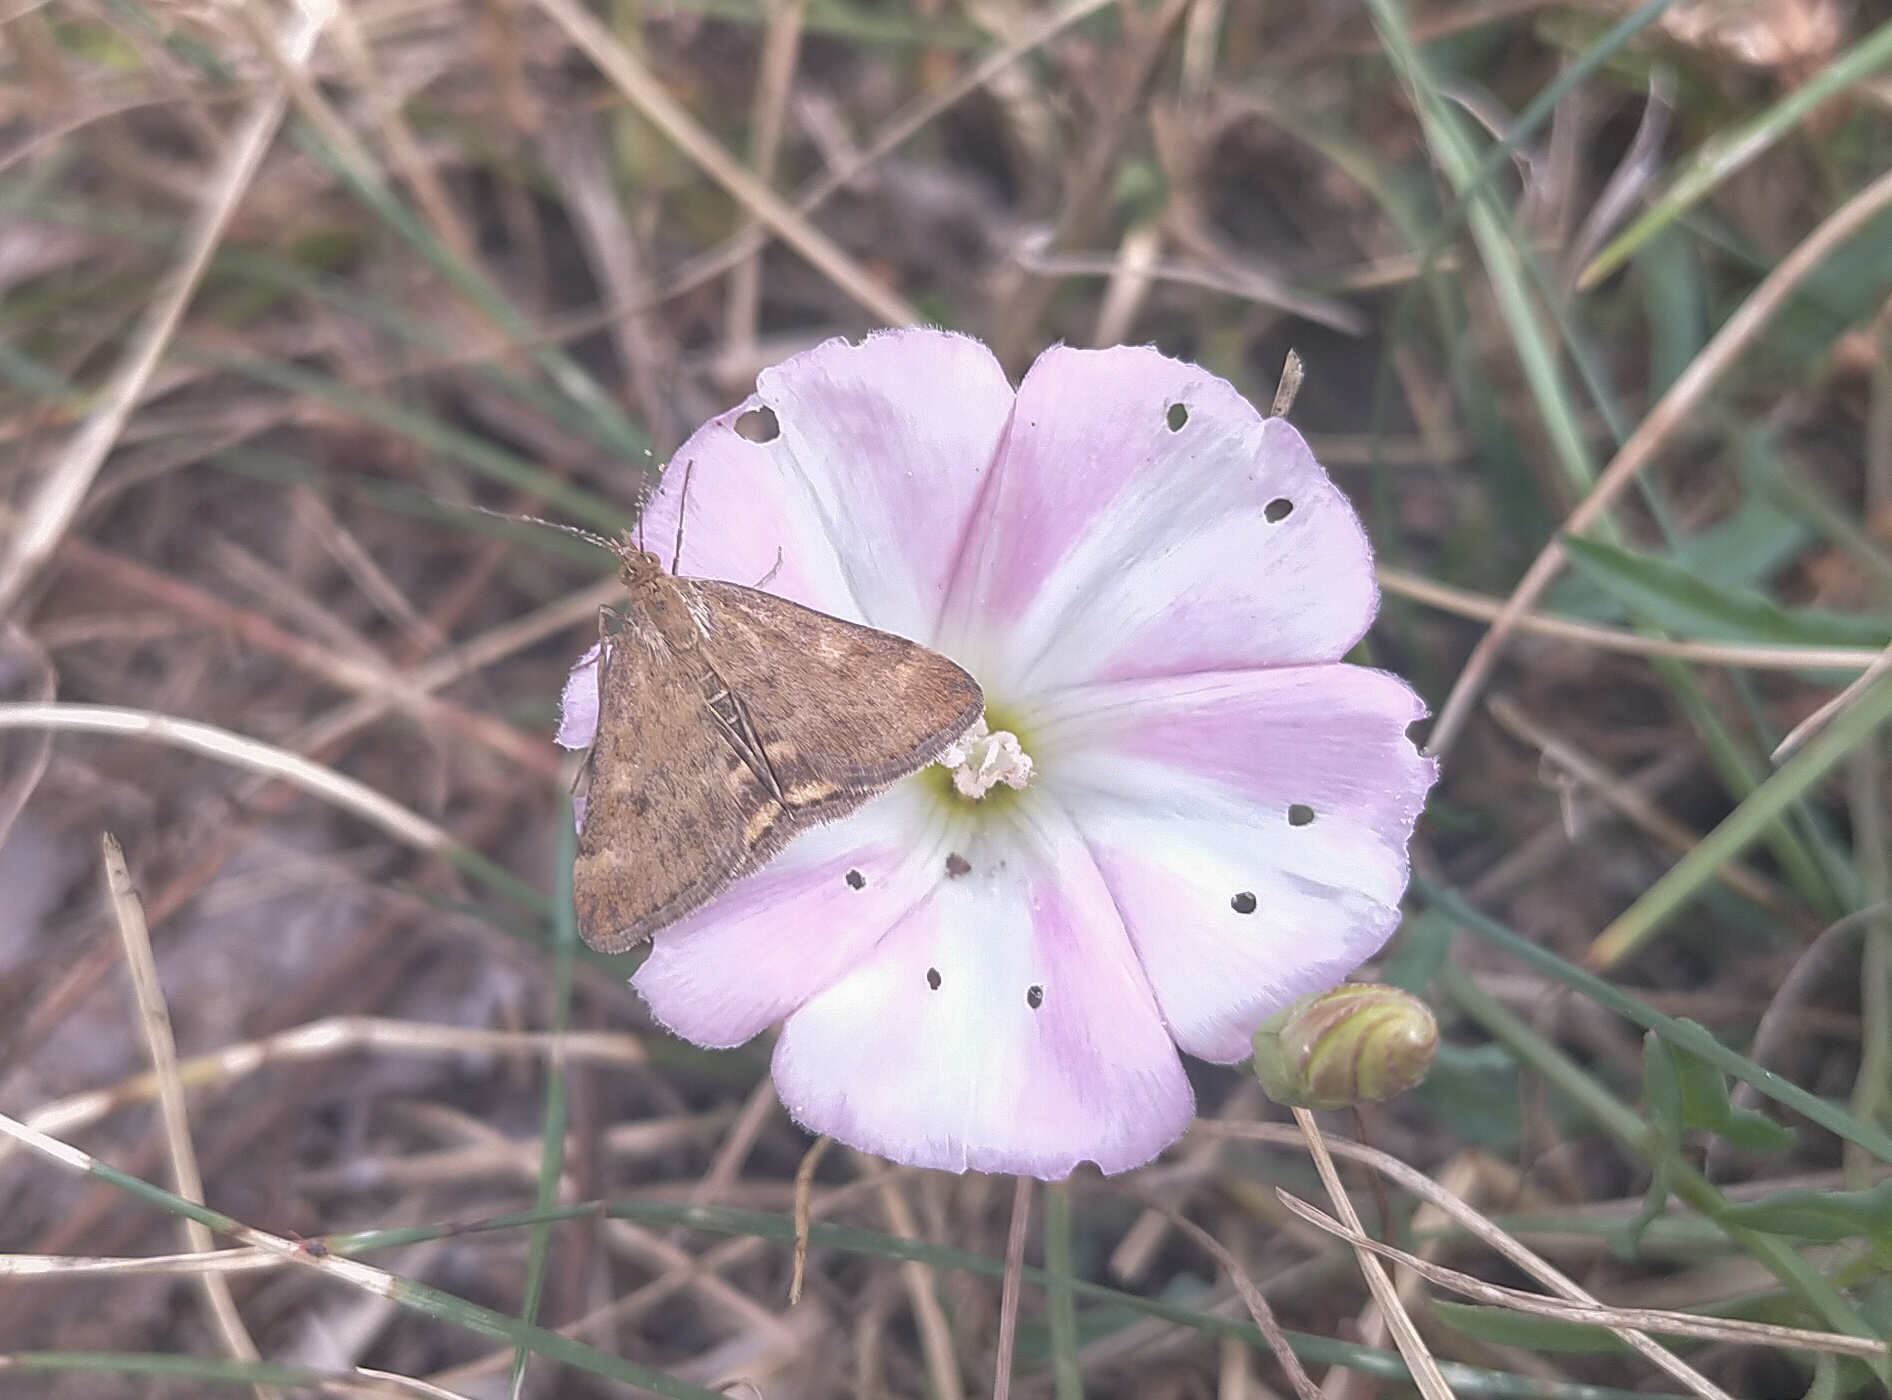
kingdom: Animalia
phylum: Arthropoda
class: Insecta
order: Lepidoptera
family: Crambidae
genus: Pyrausta
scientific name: Pyrausta despicata
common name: Straw-barred pearl
